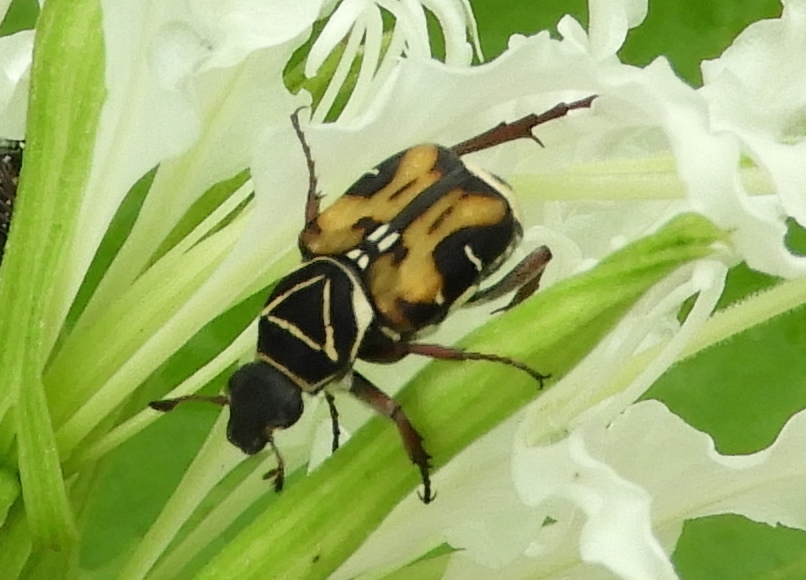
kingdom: Animalia
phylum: Arthropoda
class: Insecta
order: Coleoptera
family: Scarabaeidae
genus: Trigonopeltastes
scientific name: Trigonopeltastes sallaei
